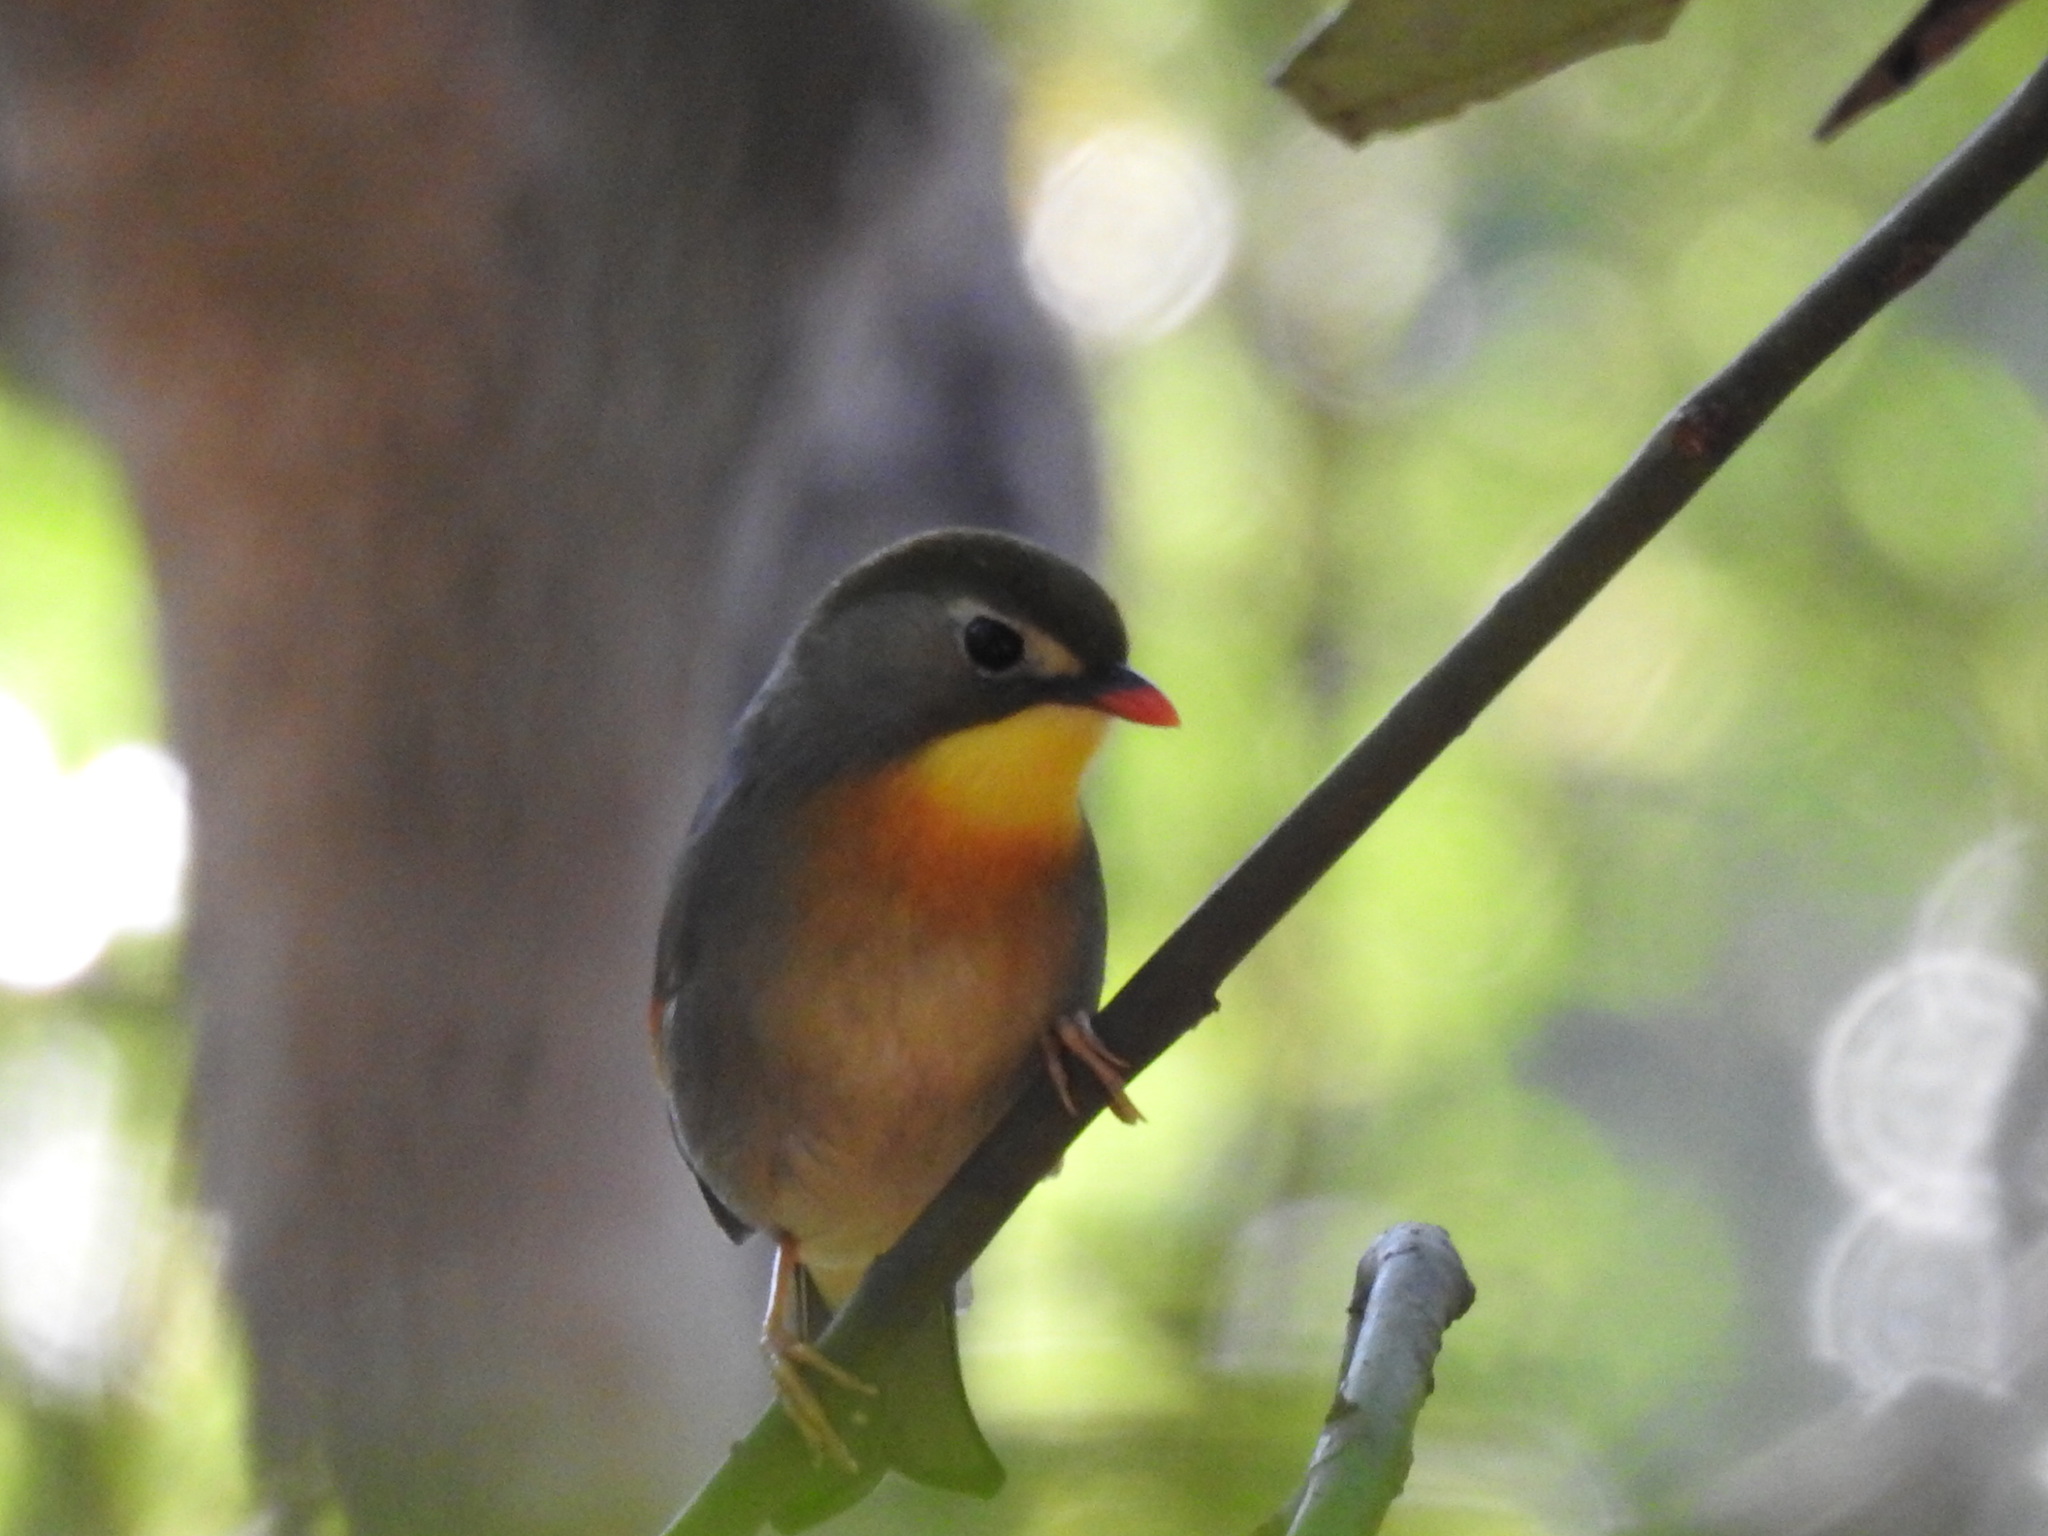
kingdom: Animalia
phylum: Chordata
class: Aves
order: Passeriformes
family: Leiothrichidae
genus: Leiothrix
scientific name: Leiothrix lutea
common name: Red-billed leiothrix
